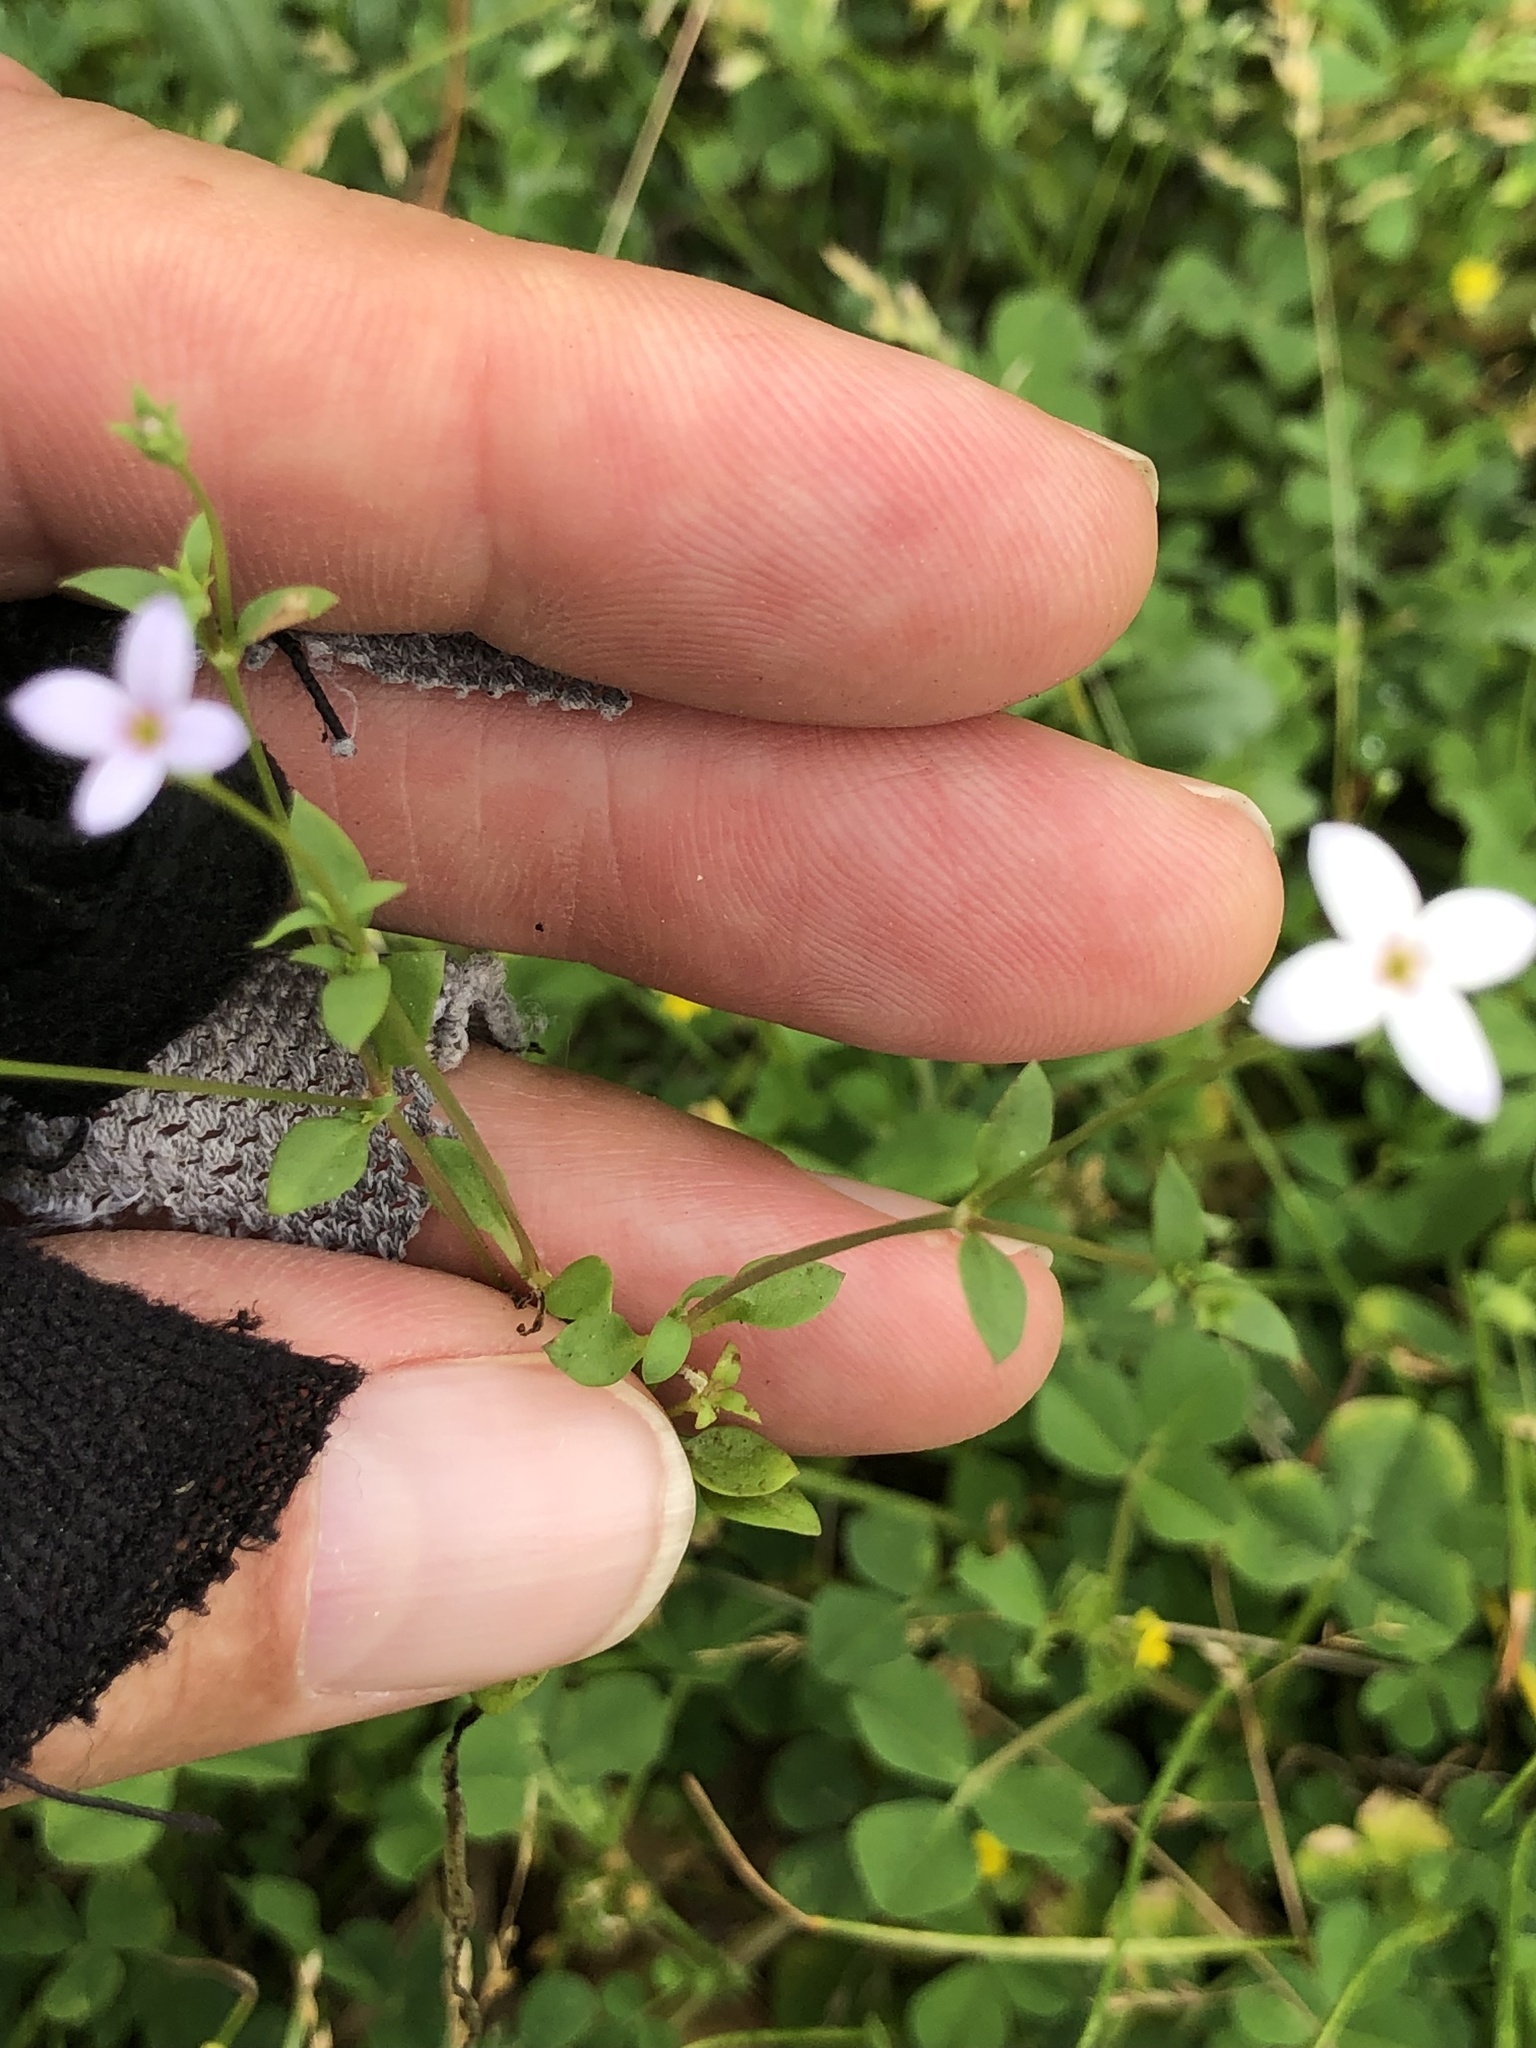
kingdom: Plantae
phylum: Tracheophyta
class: Magnoliopsida
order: Gentianales
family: Rubiaceae
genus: Houstonia
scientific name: Houstonia pusilla
